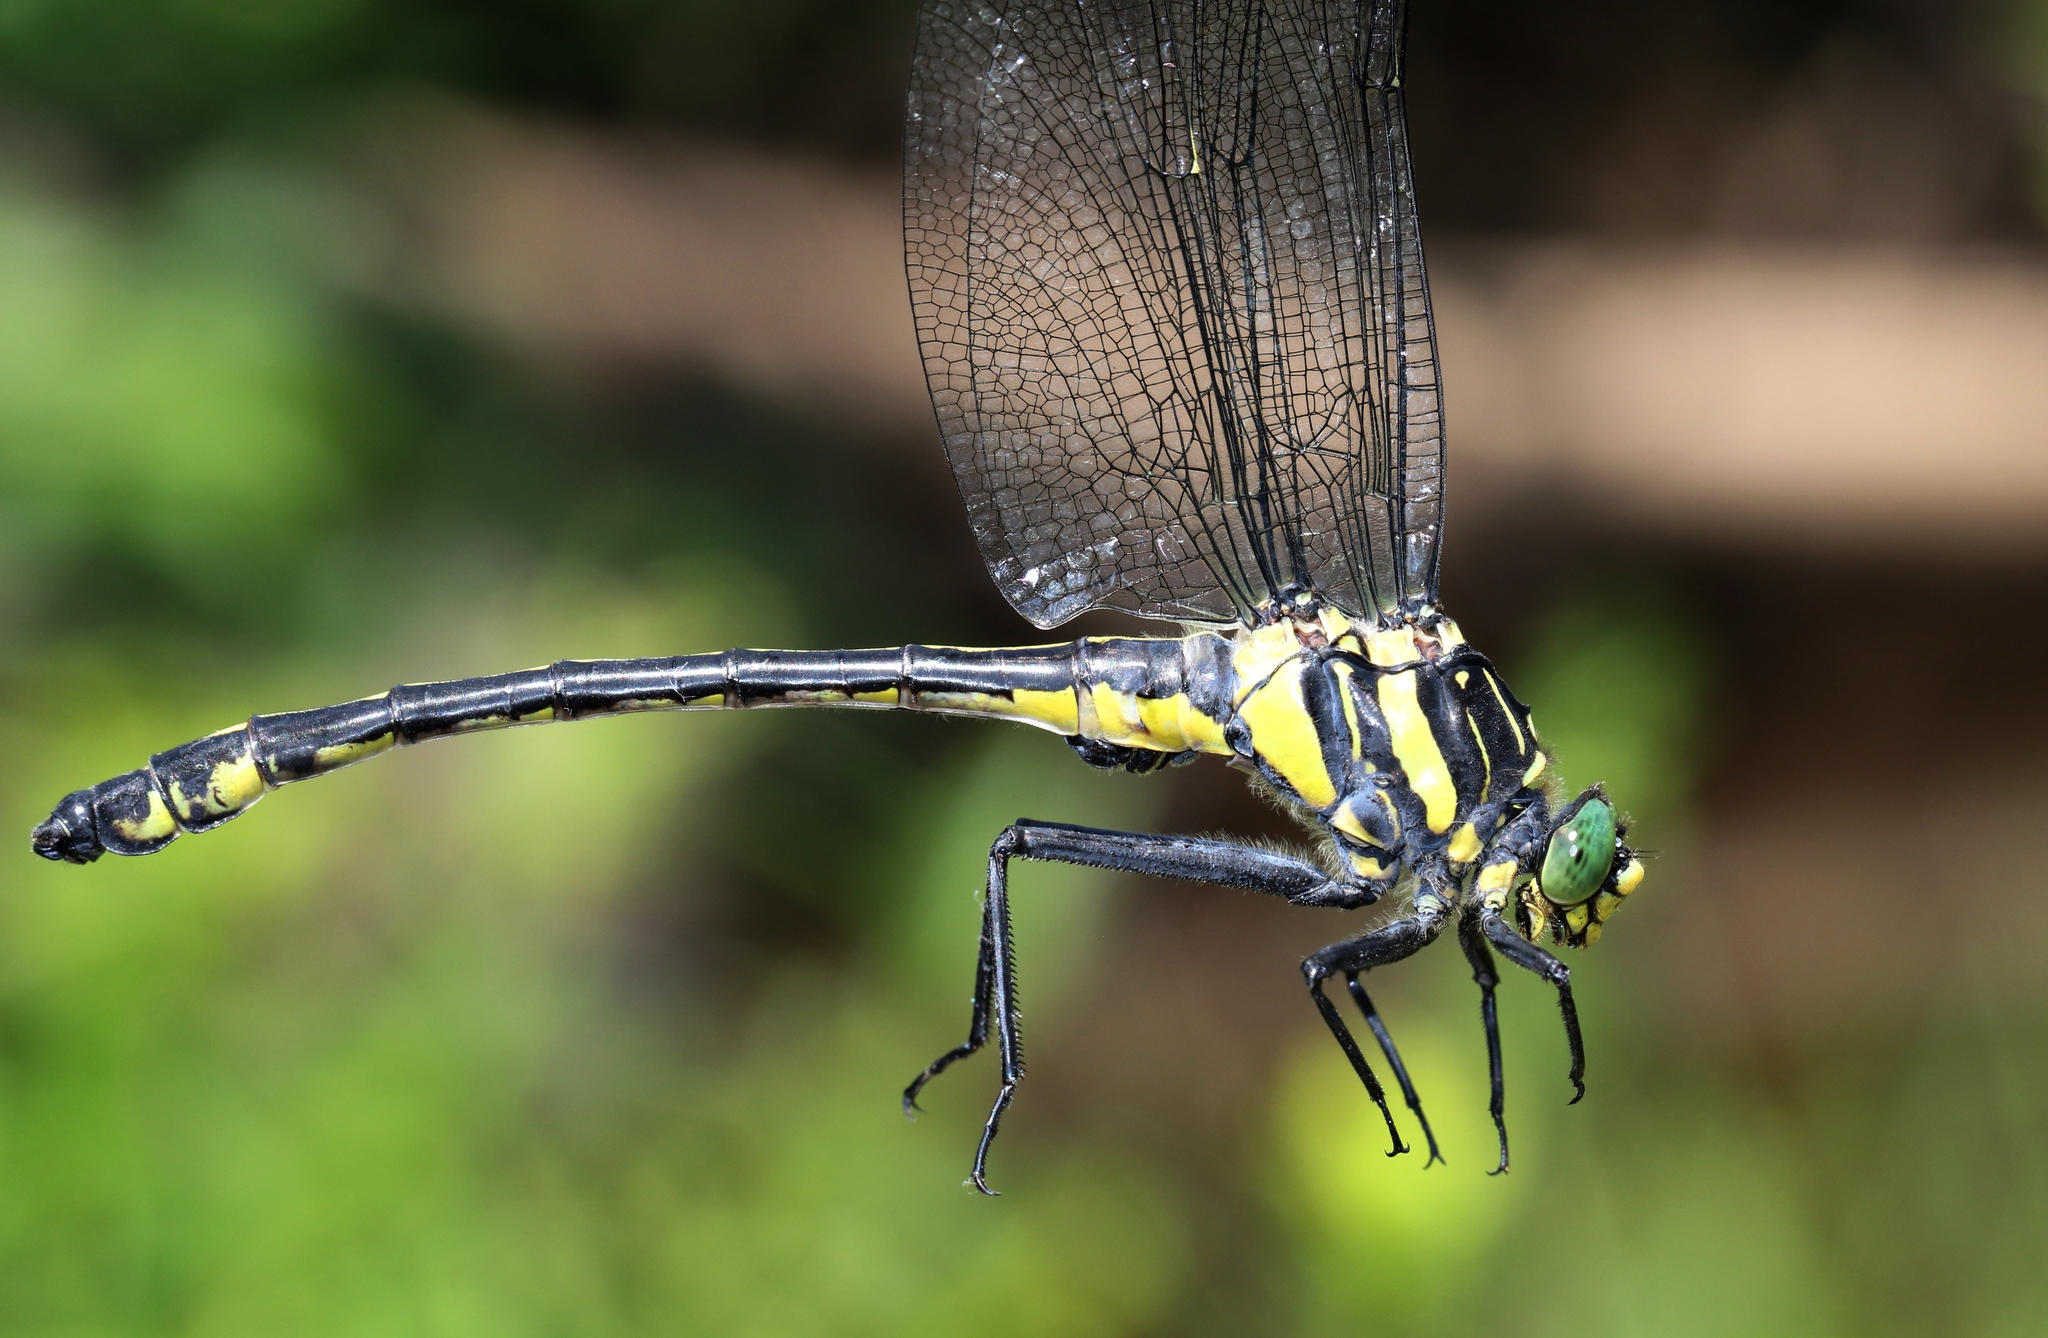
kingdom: Animalia
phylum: Arthropoda
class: Insecta
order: Odonata
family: Gomphidae
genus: Hagenius
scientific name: Hagenius brevistylus
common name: Dragonhunter
